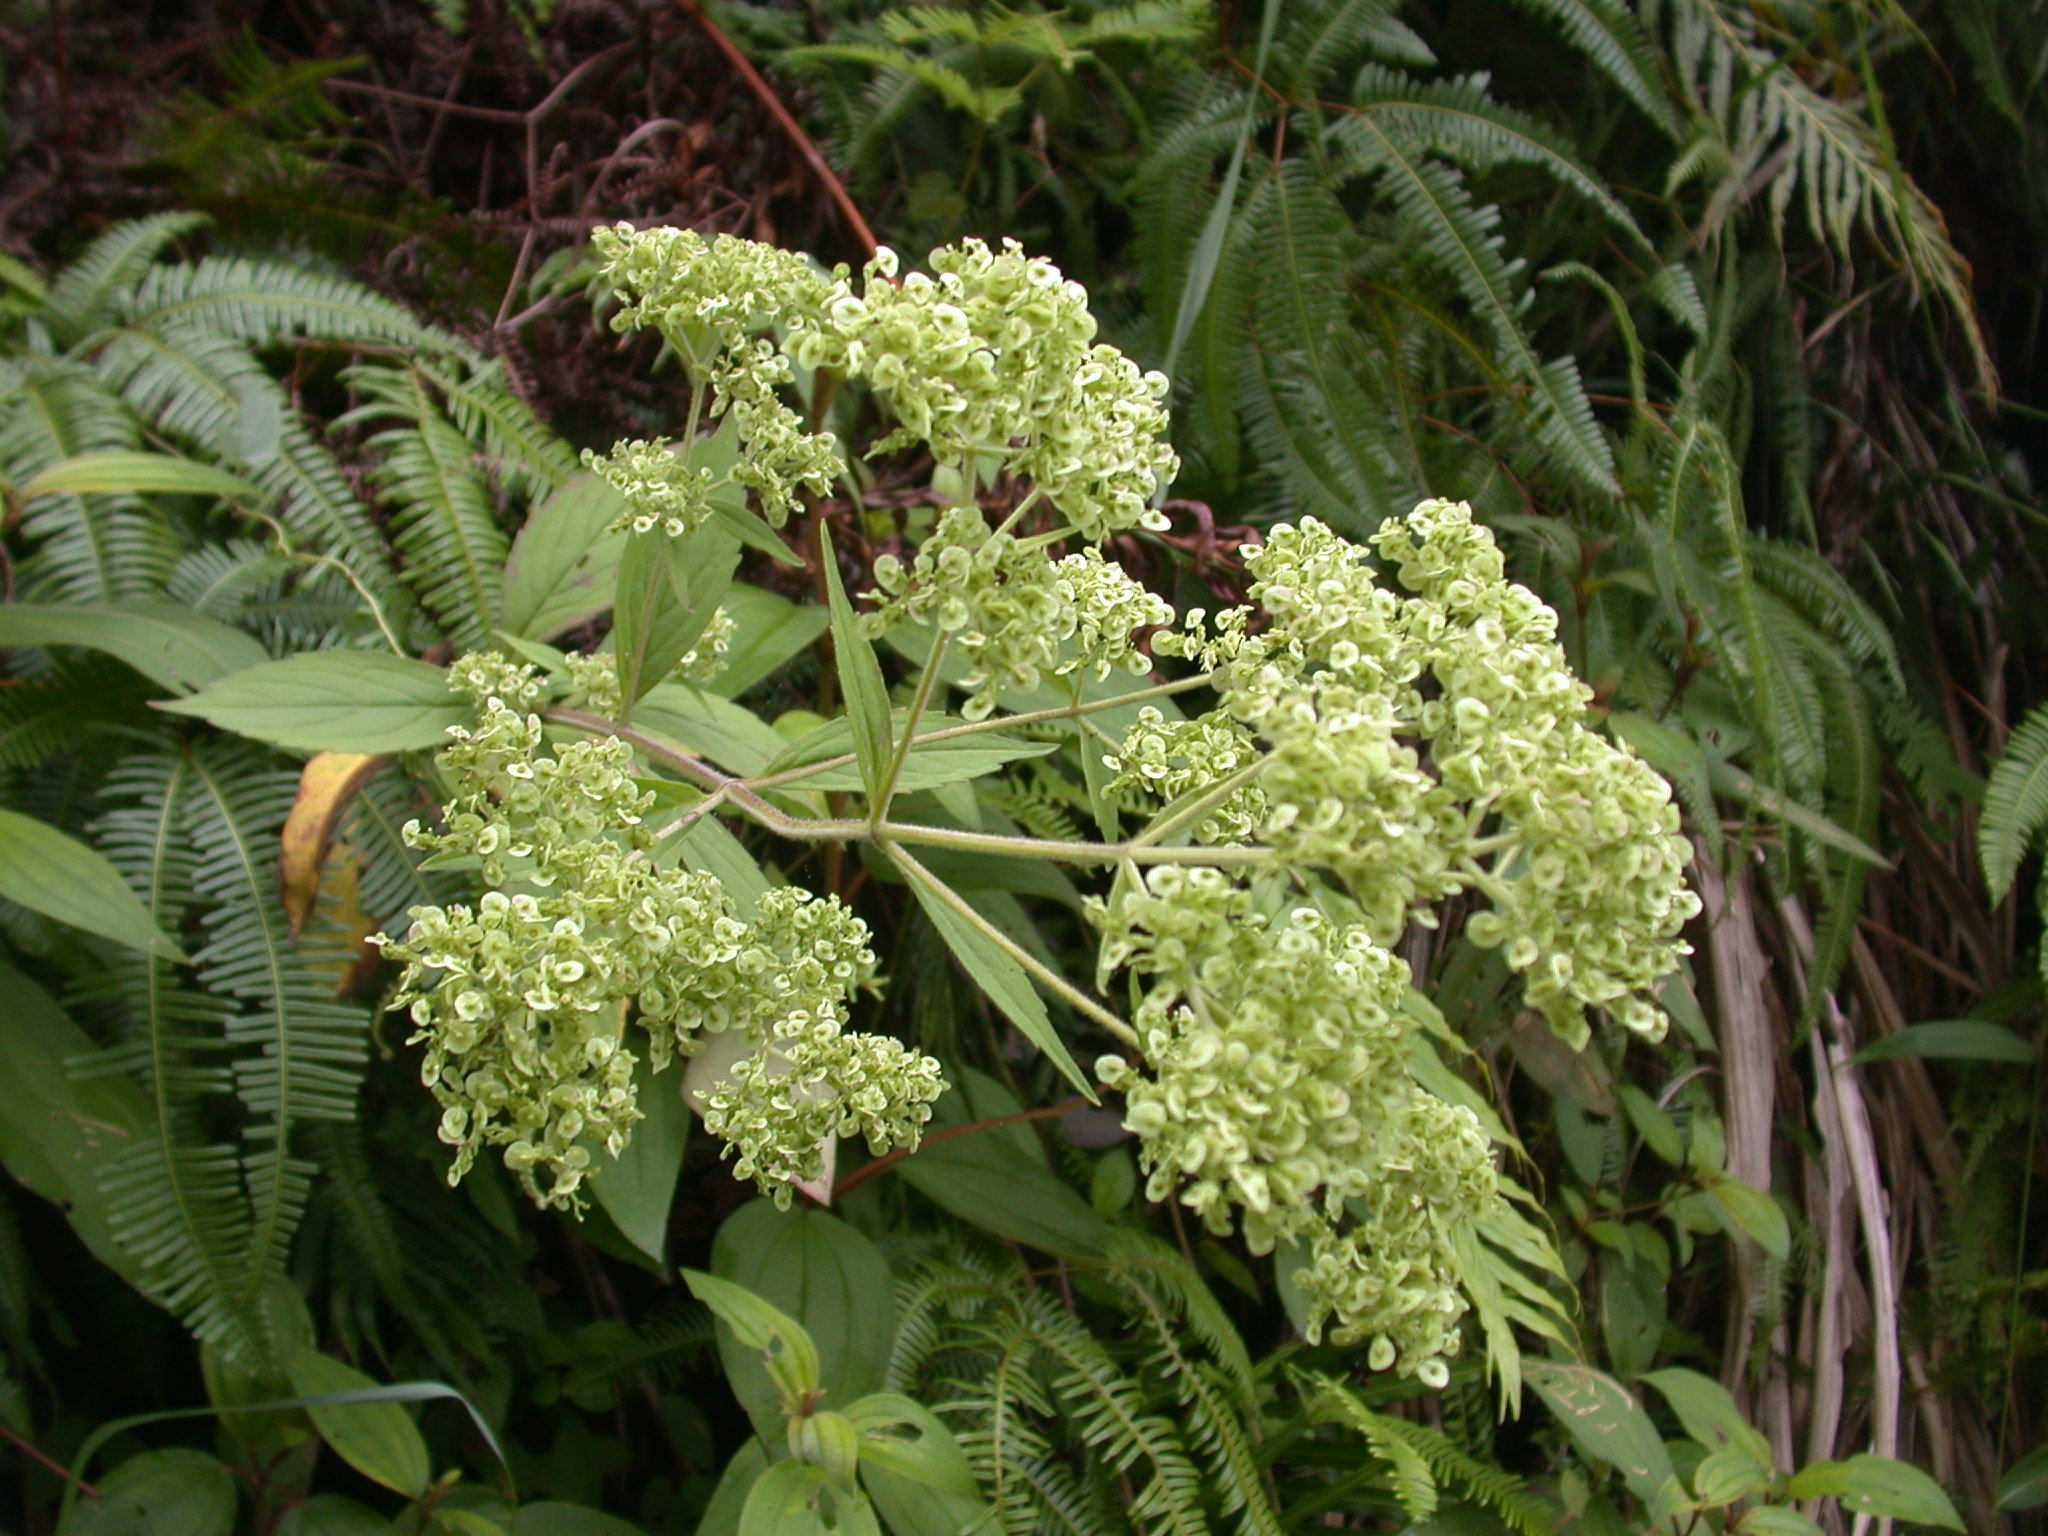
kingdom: Plantae
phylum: Tracheophyta
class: Magnoliopsida
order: Dipsacales
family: Caprifoliaceae
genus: Patrinia
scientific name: Patrinia monandra
